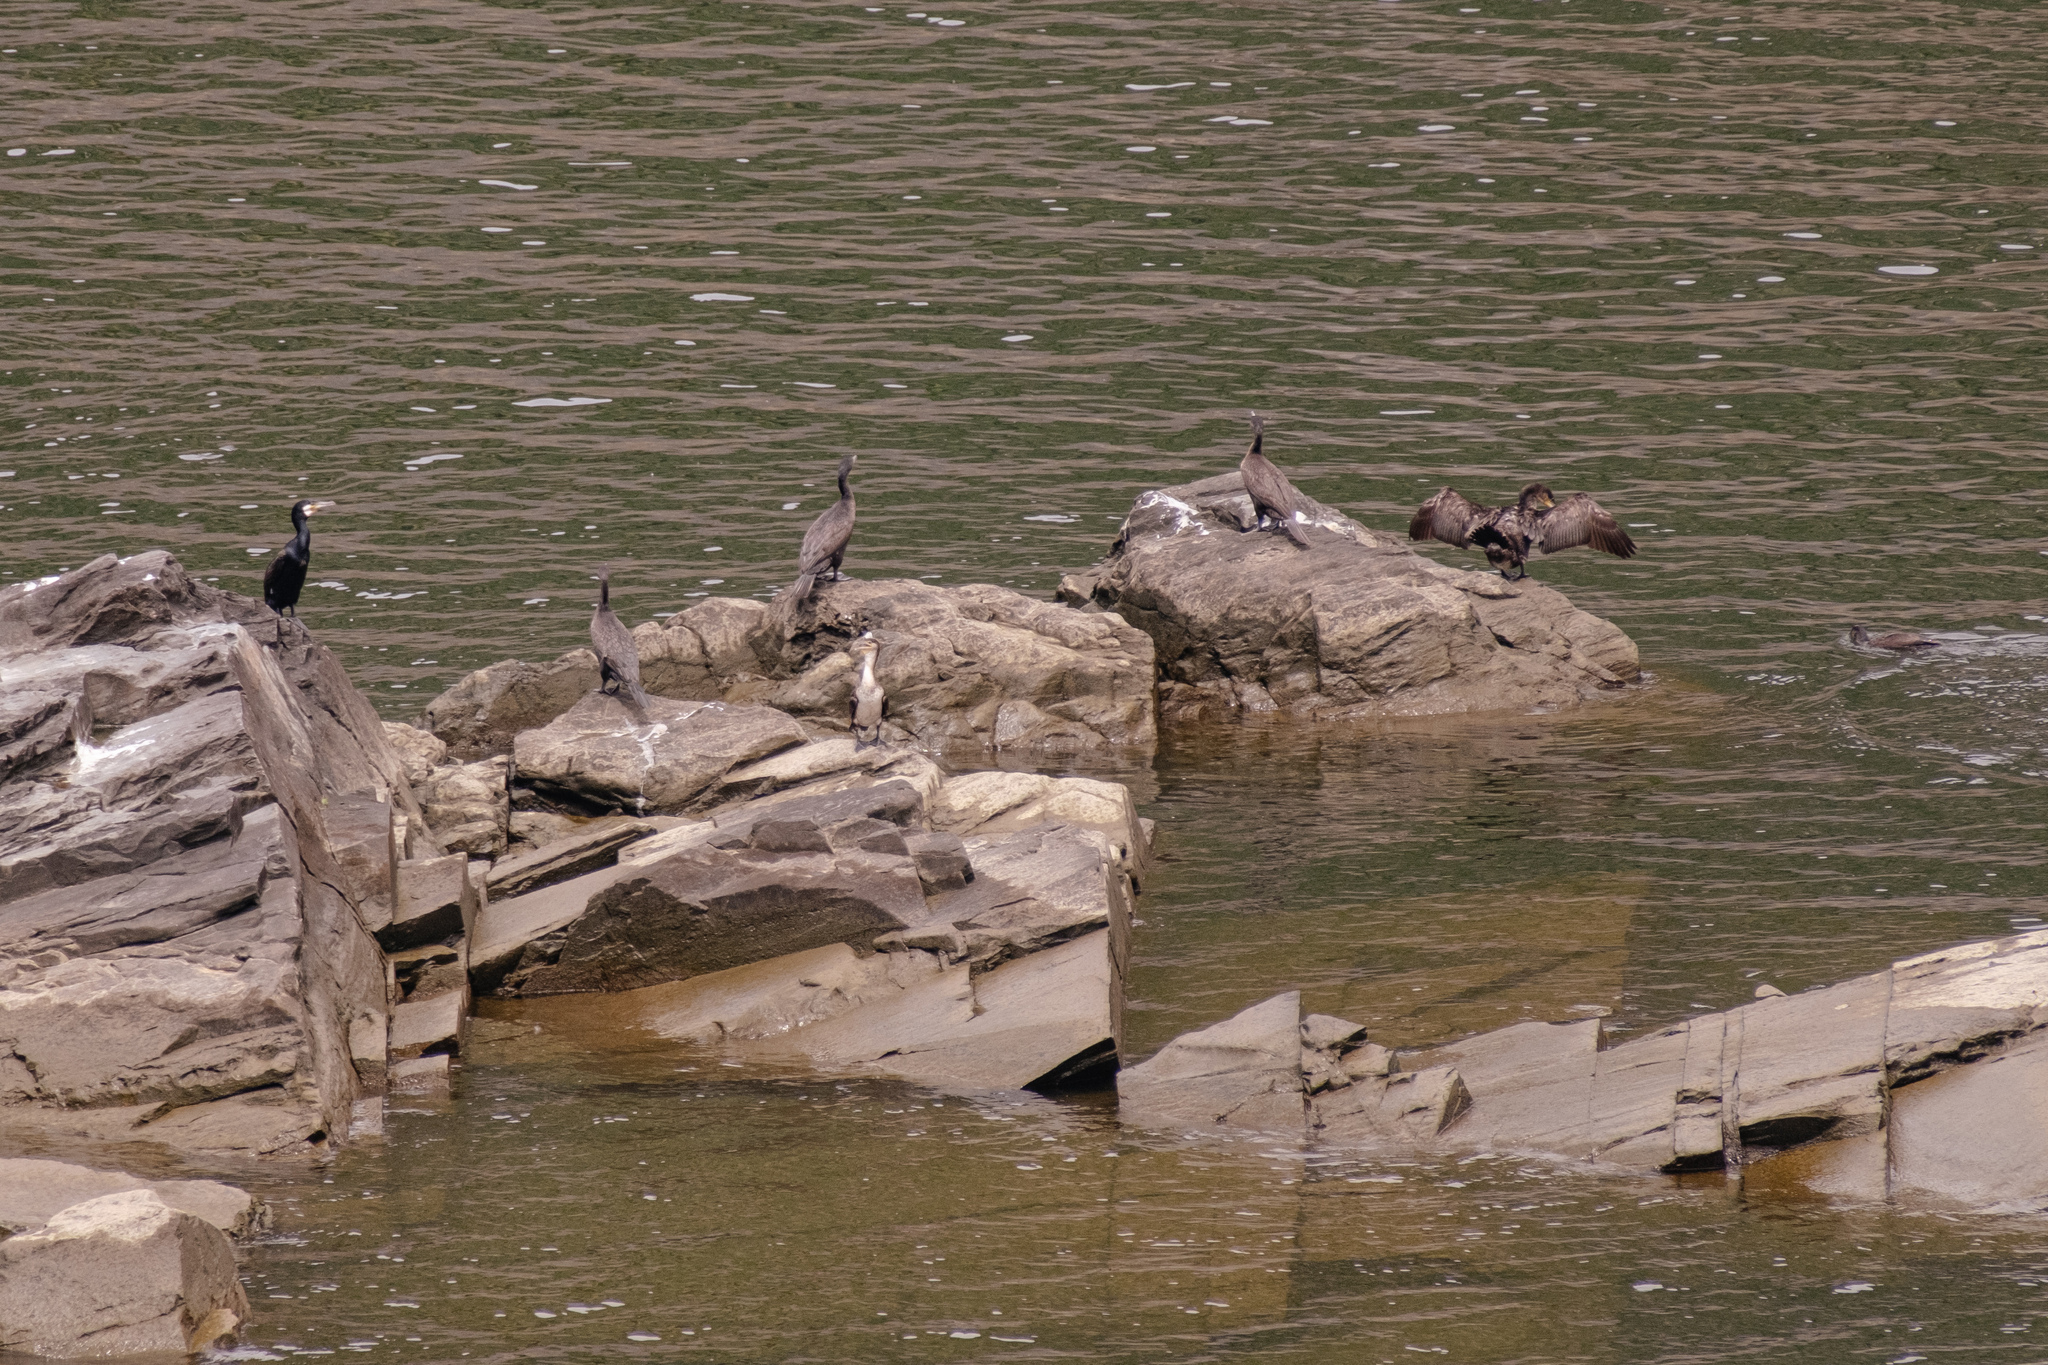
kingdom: Animalia
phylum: Chordata
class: Aves
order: Suliformes
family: Phalacrocoracidae
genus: Phalacrocorax
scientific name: Phalacrocorax carbo
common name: Great cormorant
